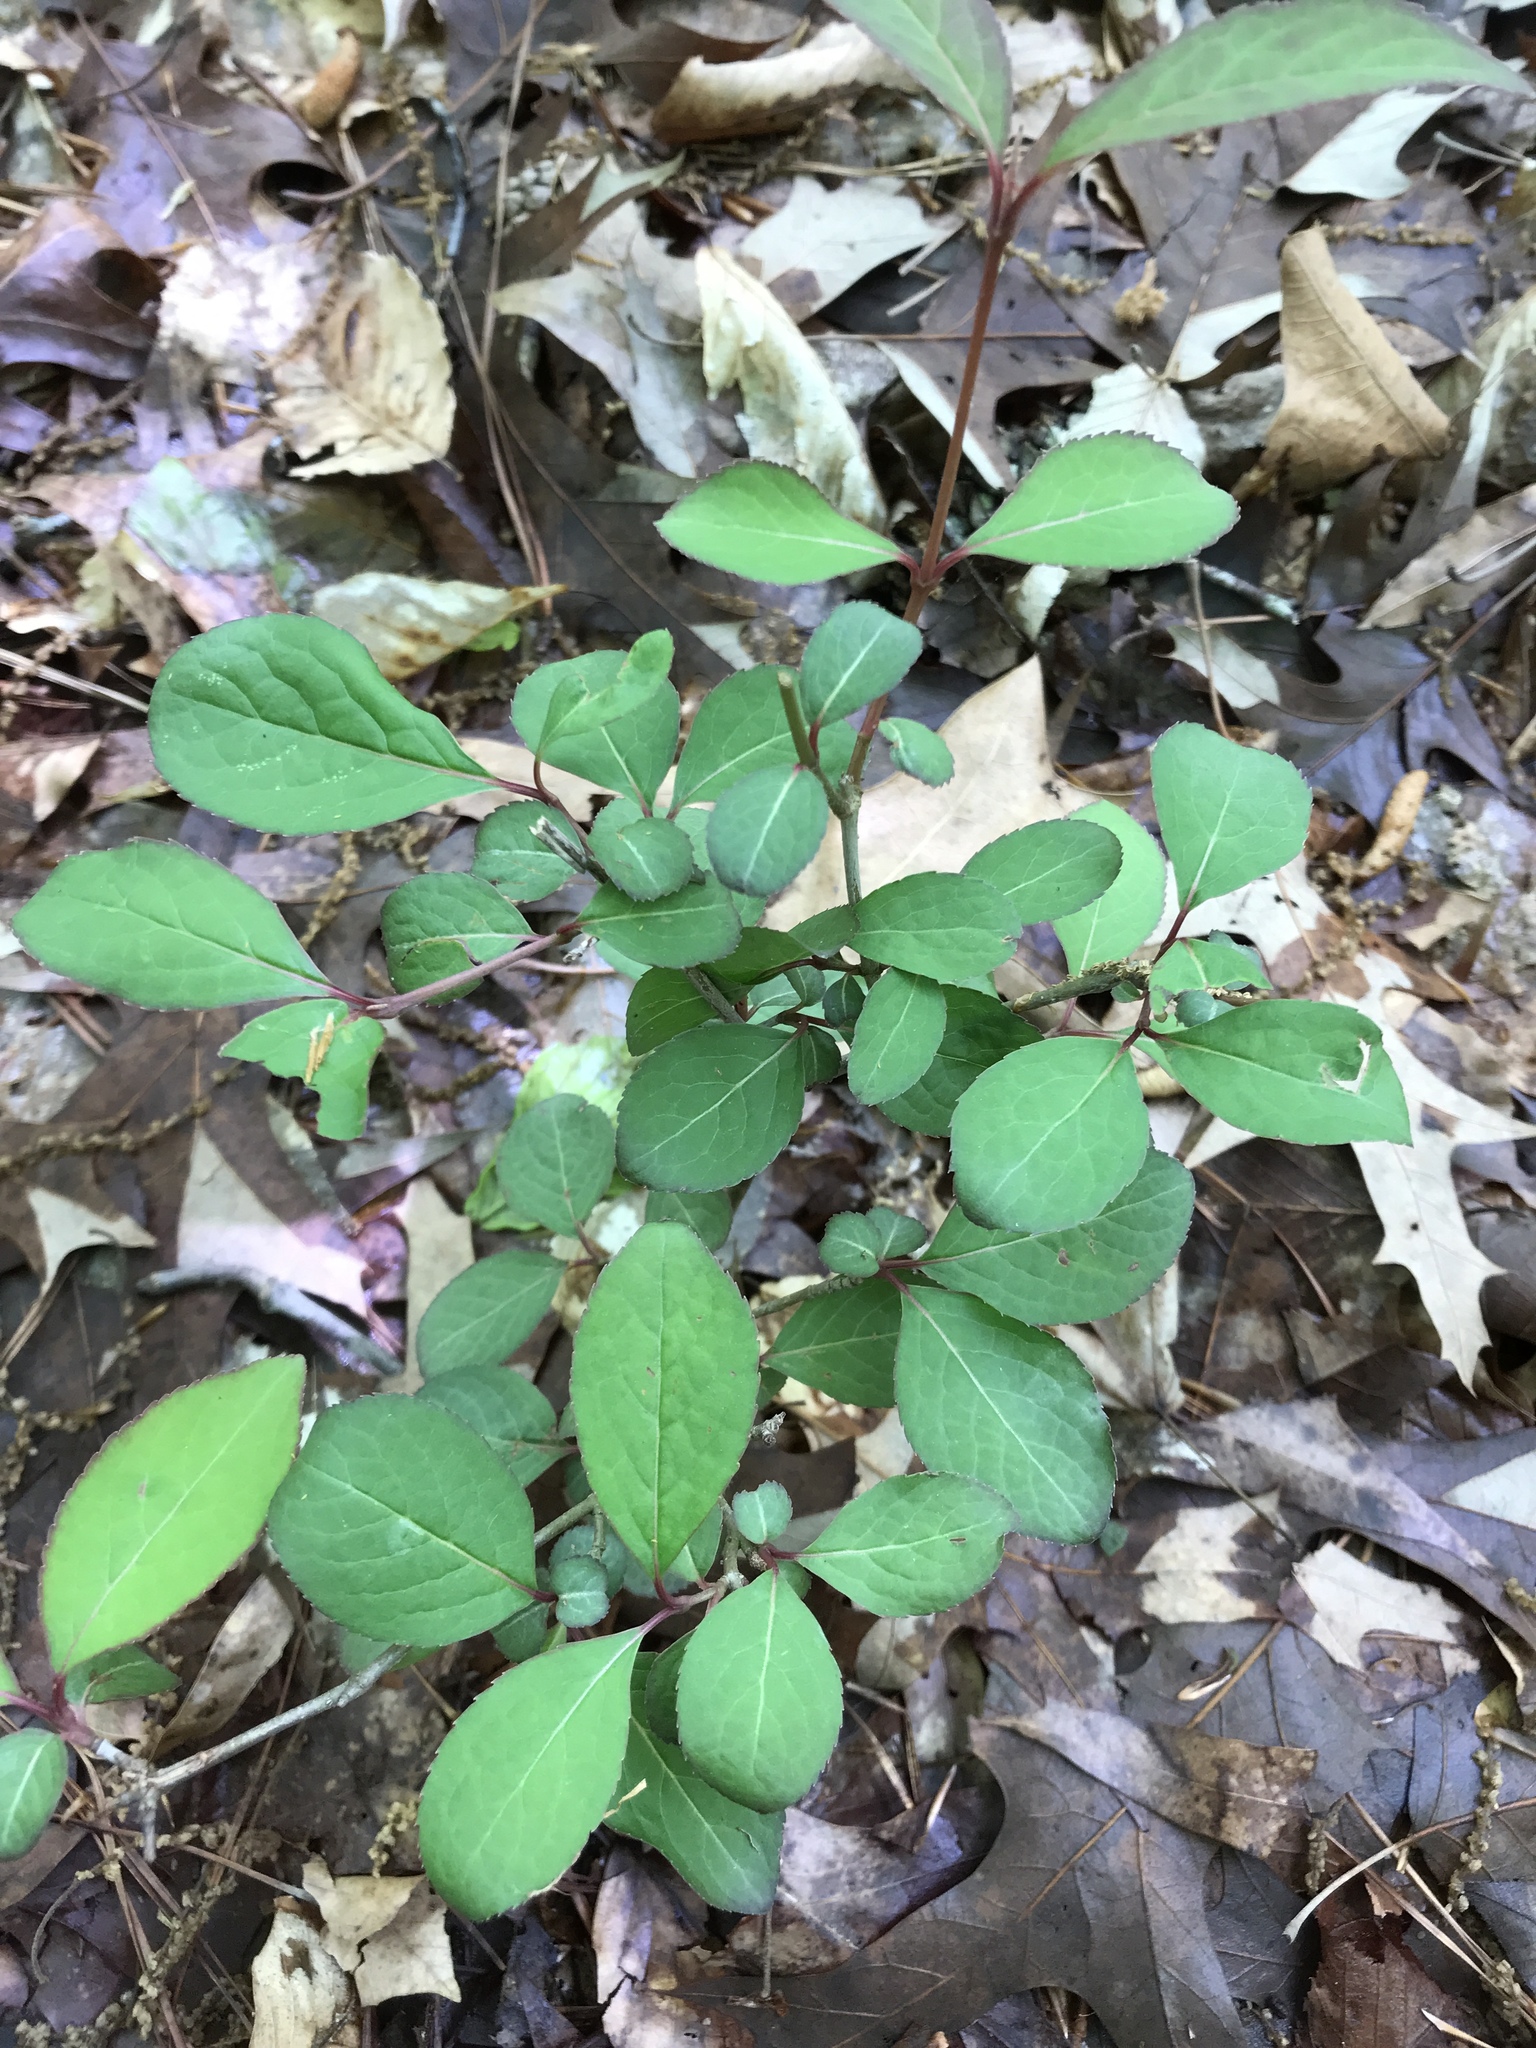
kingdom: Plantae
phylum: Tracheophyta
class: Magnoliopsida
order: Dipsacales
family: Viburnaceae
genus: Viburnum
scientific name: Viburnum prunifolium
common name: Black haw
